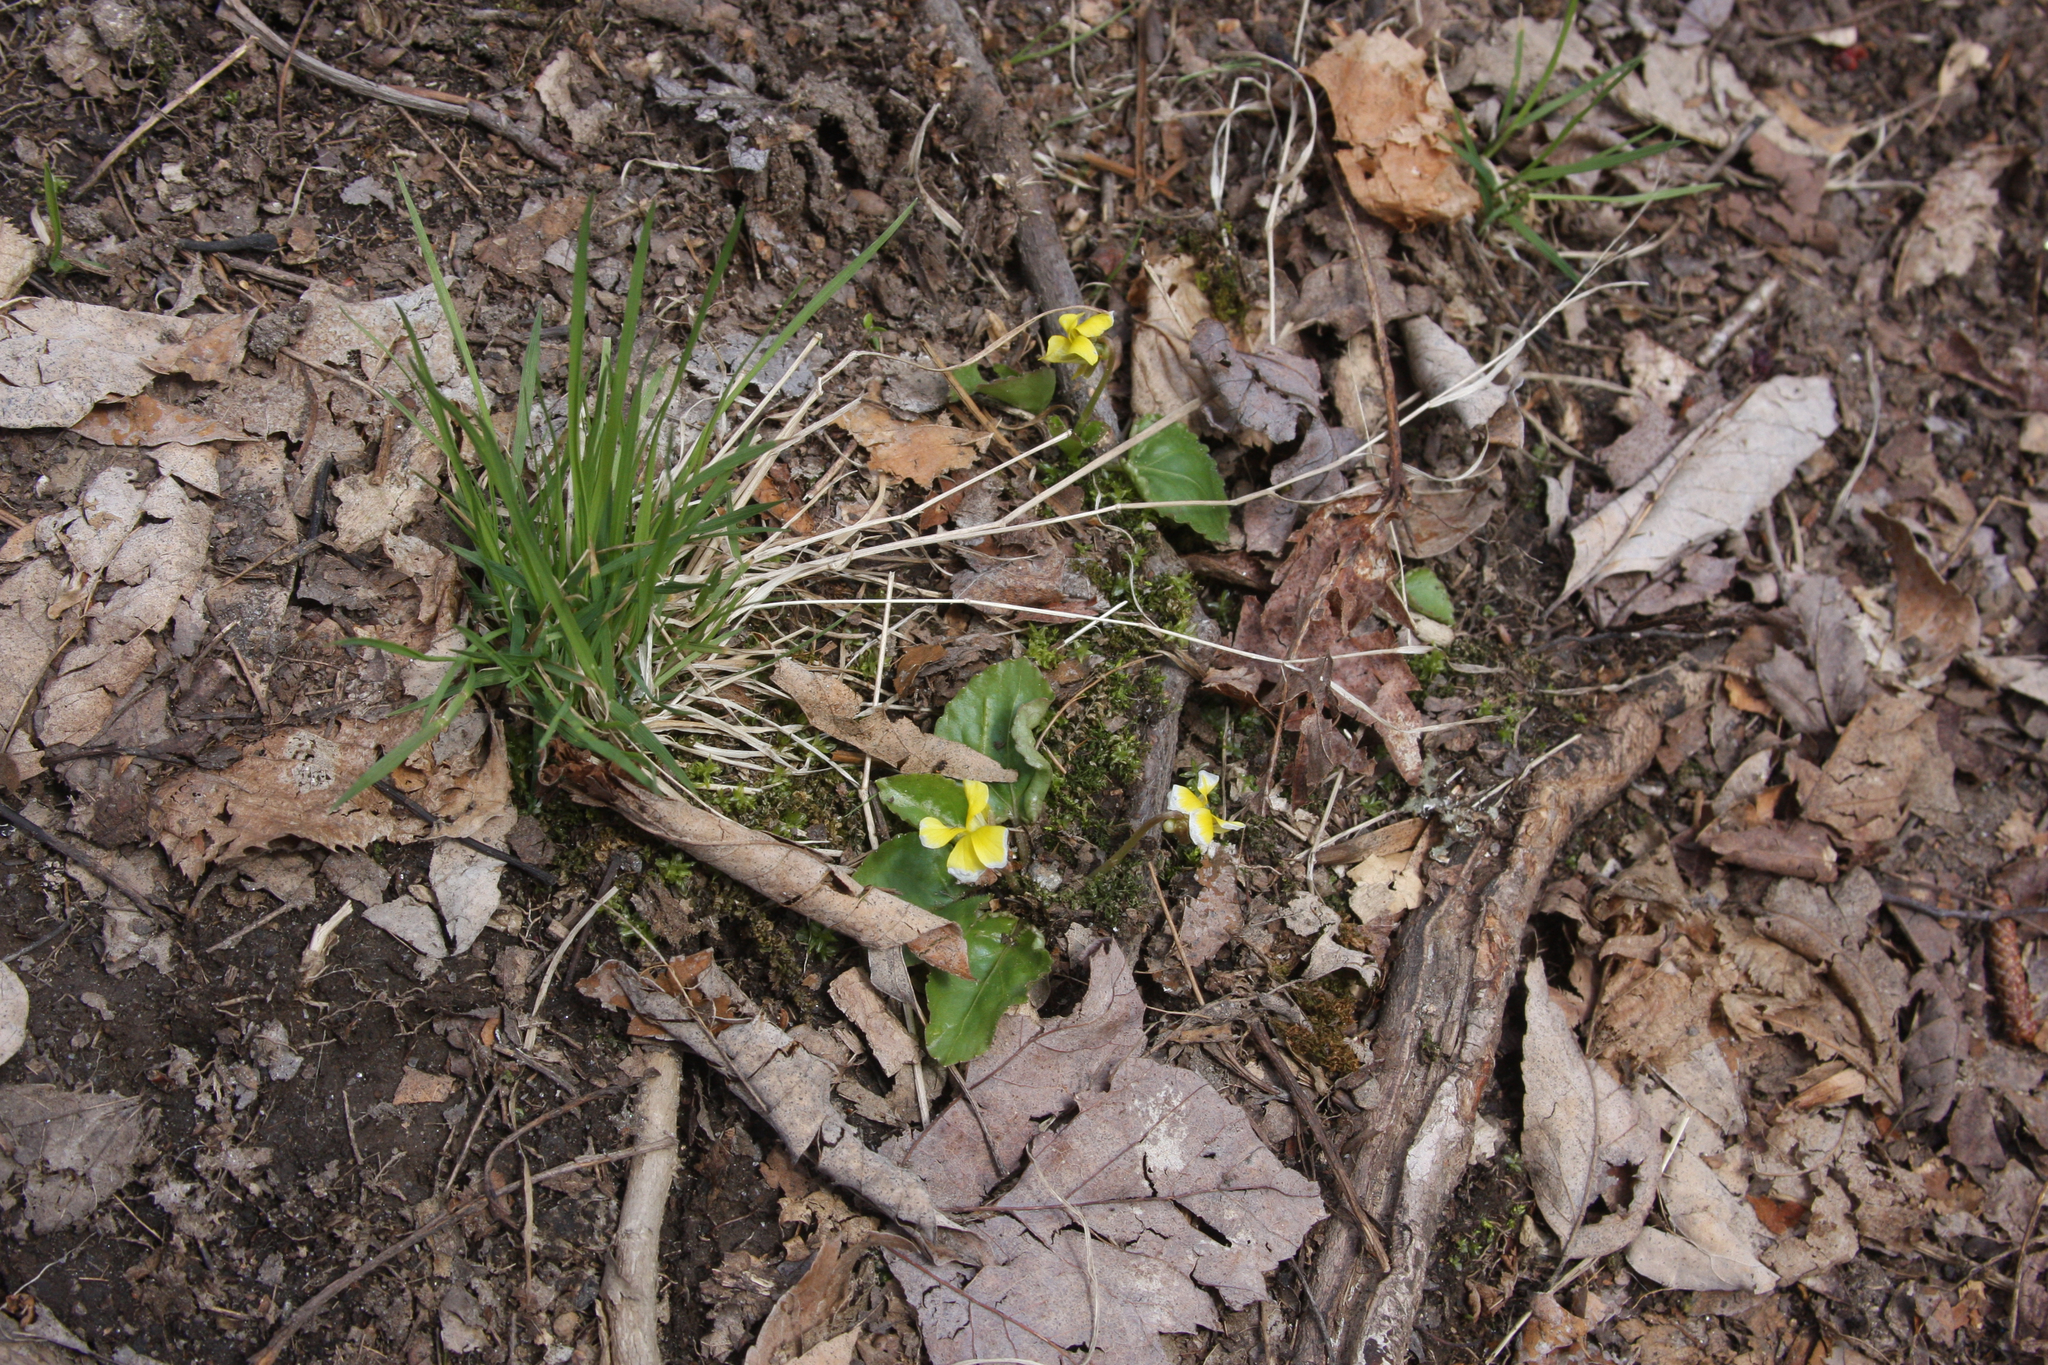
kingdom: Plantae
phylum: Tracheophyta
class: Magnoliopsida
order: Malpighiales
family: Violaceae
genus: Viola
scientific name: Viola rotundifolia
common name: Early yellow violet
